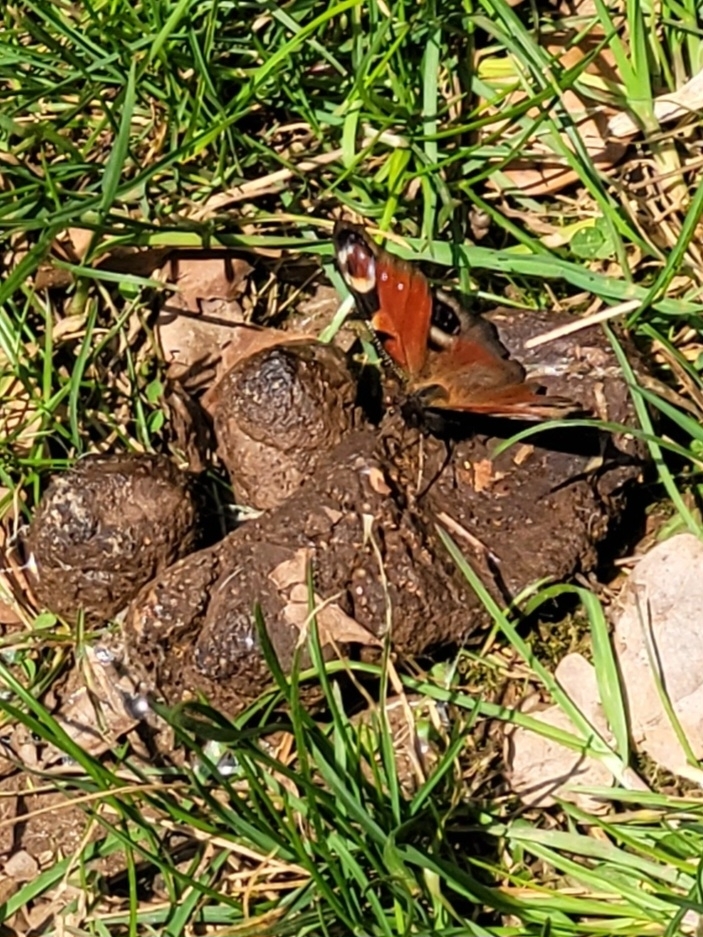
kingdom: Animalia
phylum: Arthropoda
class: Insecta
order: Lepidoptera
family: Nymphalidae
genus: Aglais
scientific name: Aglais io
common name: Peacock
